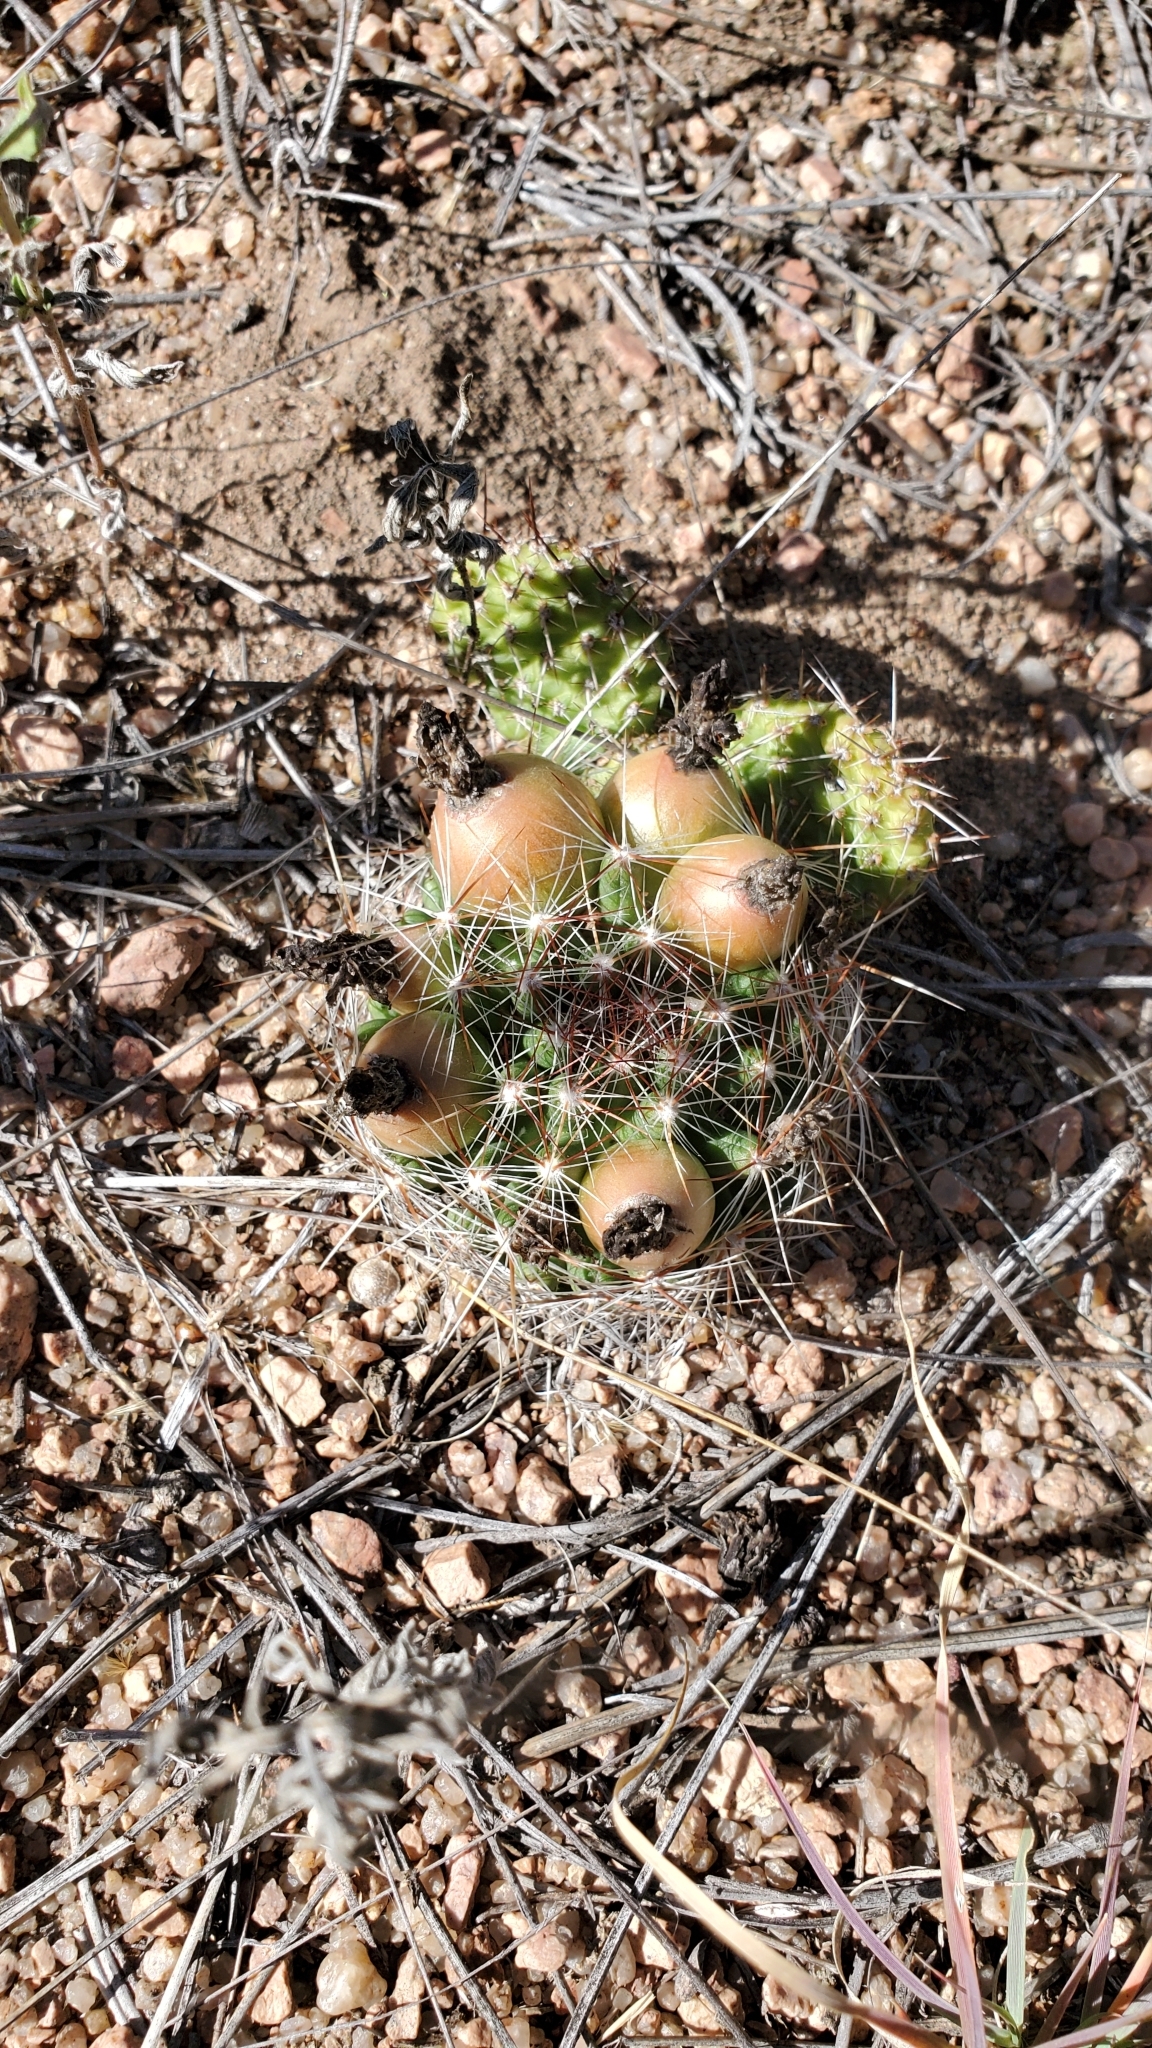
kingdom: Plantae
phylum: Tracheophyta
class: Magnoliopsida
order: Caryophyllales
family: Cactaceae
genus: Pelecyphora
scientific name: Pelecyphora vivipara
